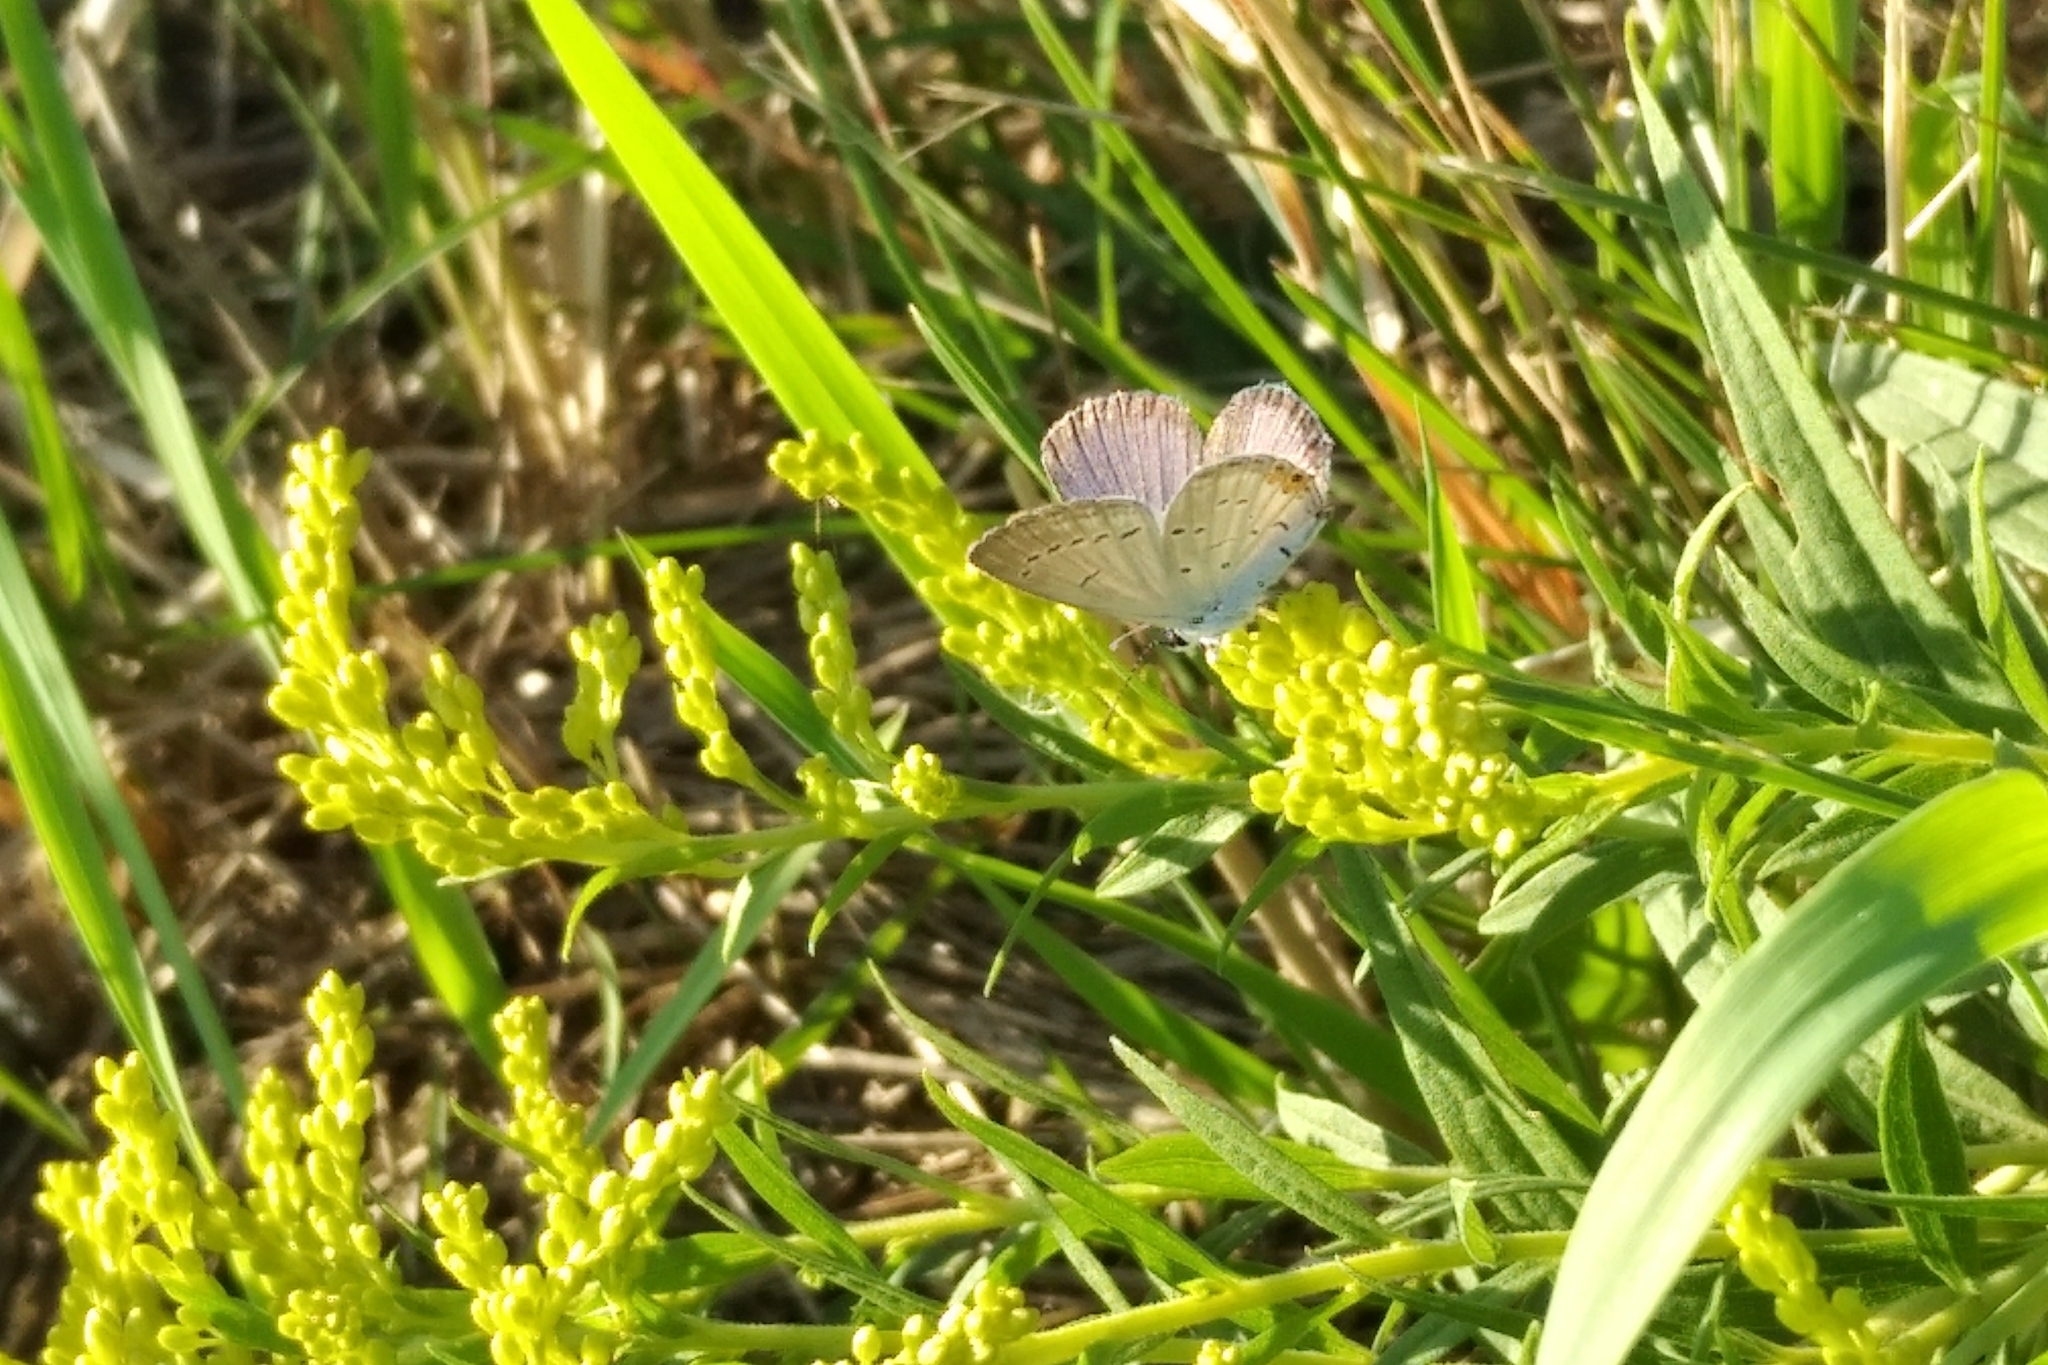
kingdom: Animalia
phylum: Arthropoda
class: Insecta
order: Lepidoptera
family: Lycaenidae
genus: Elkalyce
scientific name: Elkalyce comyntas
